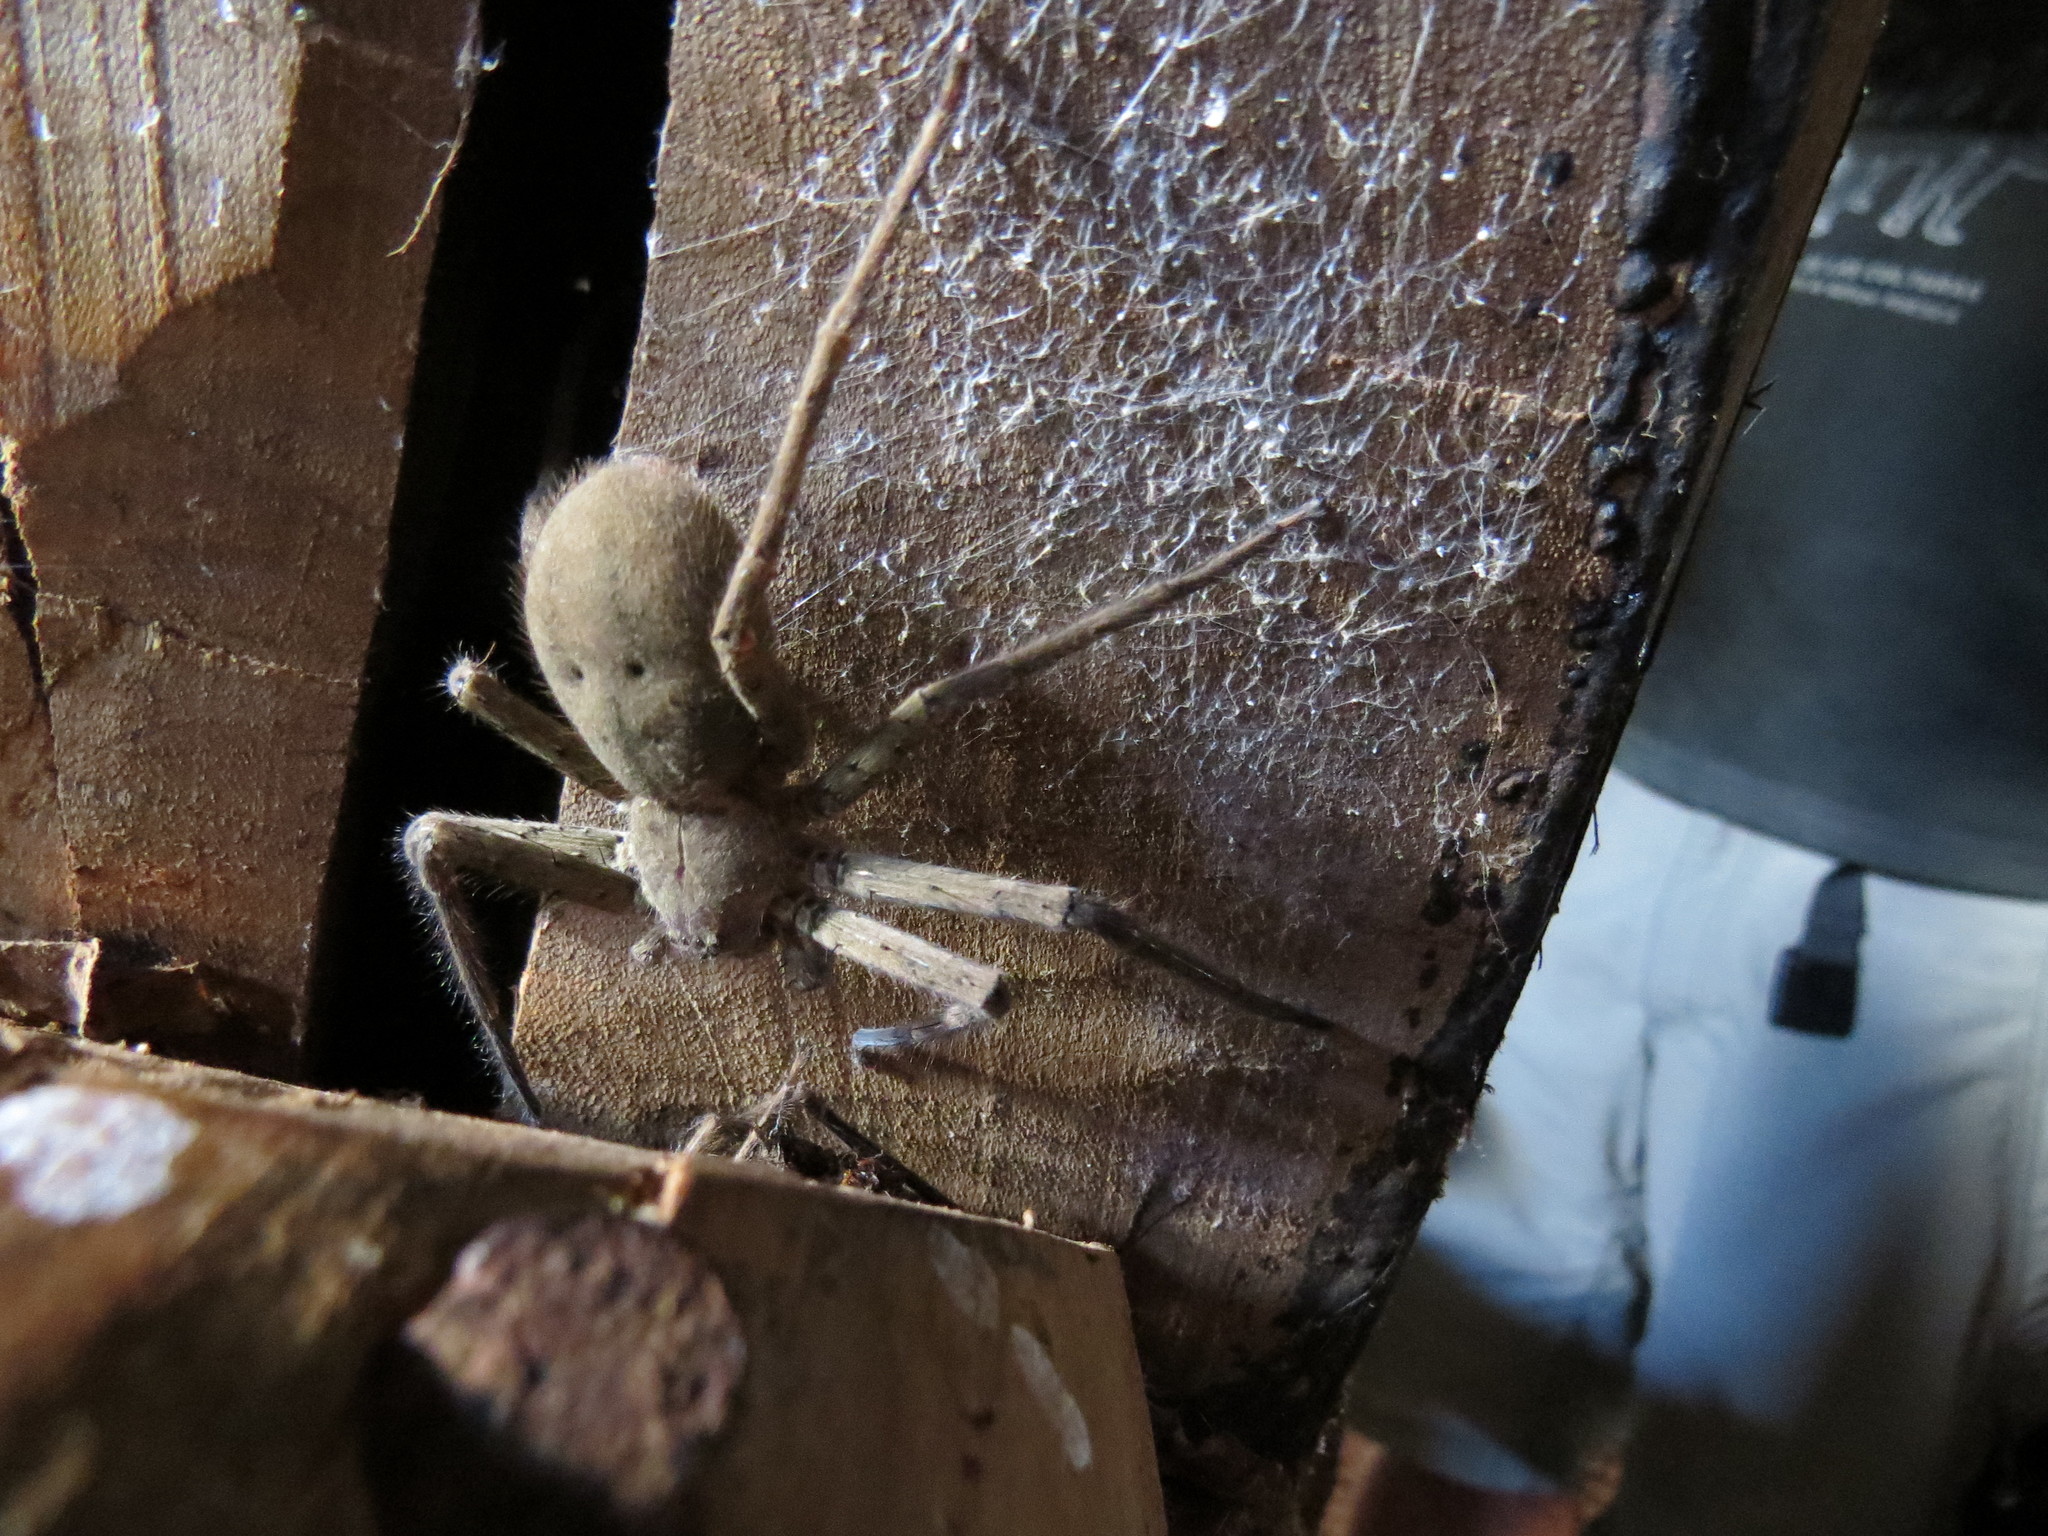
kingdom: Animalia
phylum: Arthropoda
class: Arachnida
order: Araneae
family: Sparassidae
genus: Heteropoda
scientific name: Heteropoda venatoria
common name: Huntsman spider
